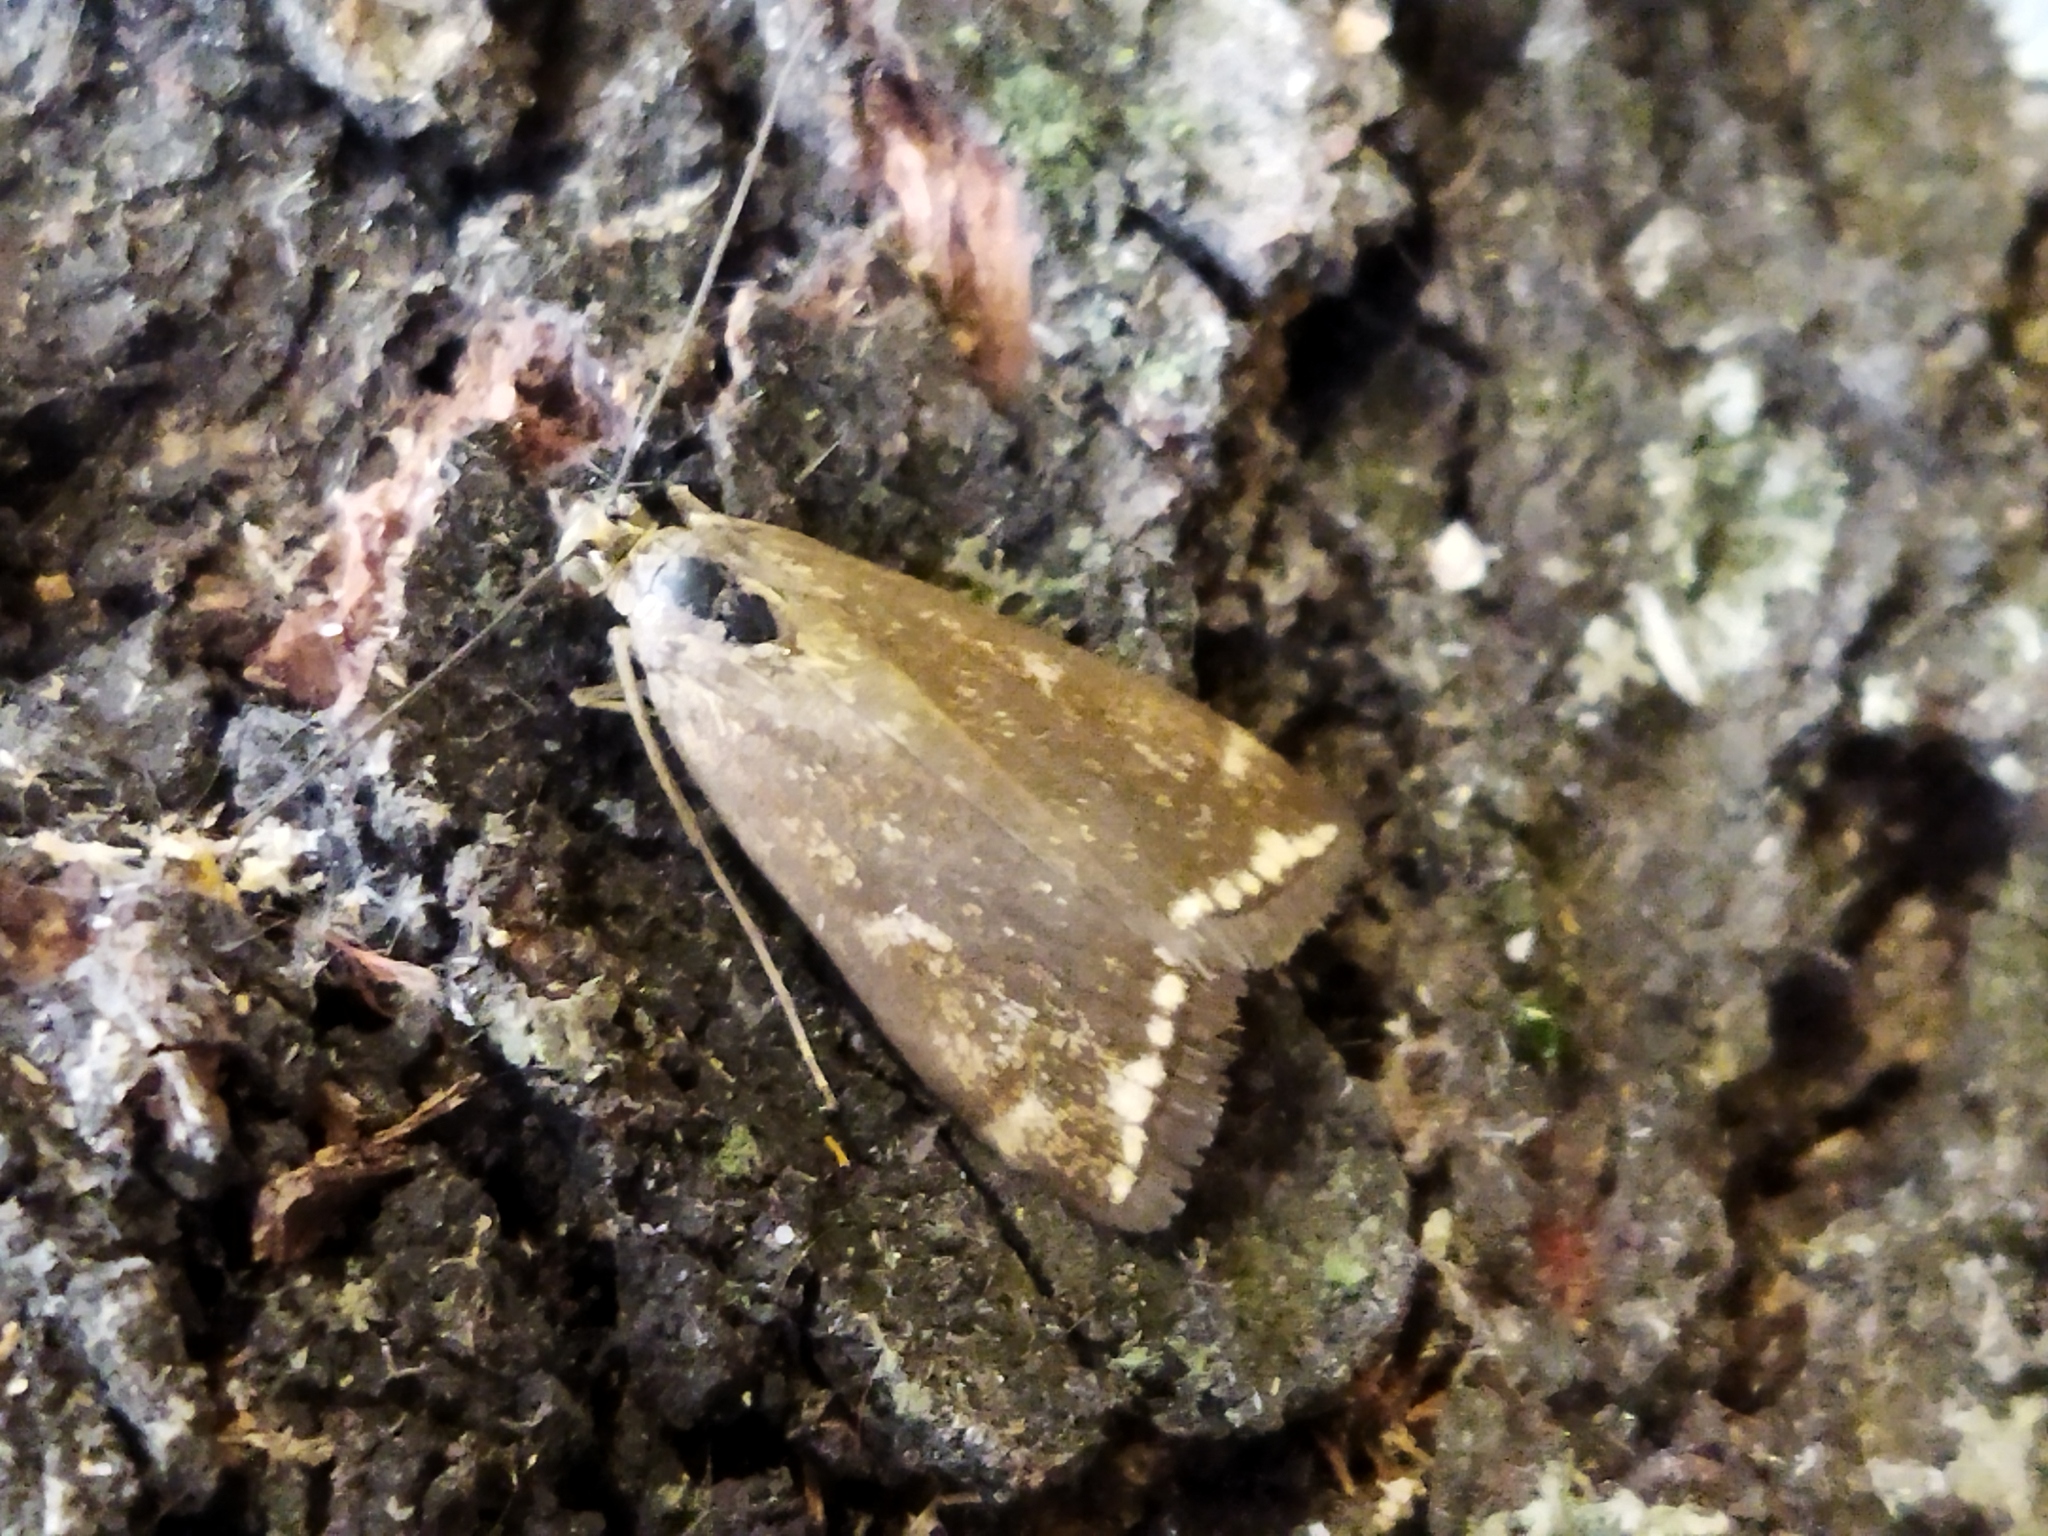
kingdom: Animalia
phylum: Arthropoda
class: Insecta
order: Lepidoptera
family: Crambidae
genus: Loxostege
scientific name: Loxostege sticticalis
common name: Crambid moth
